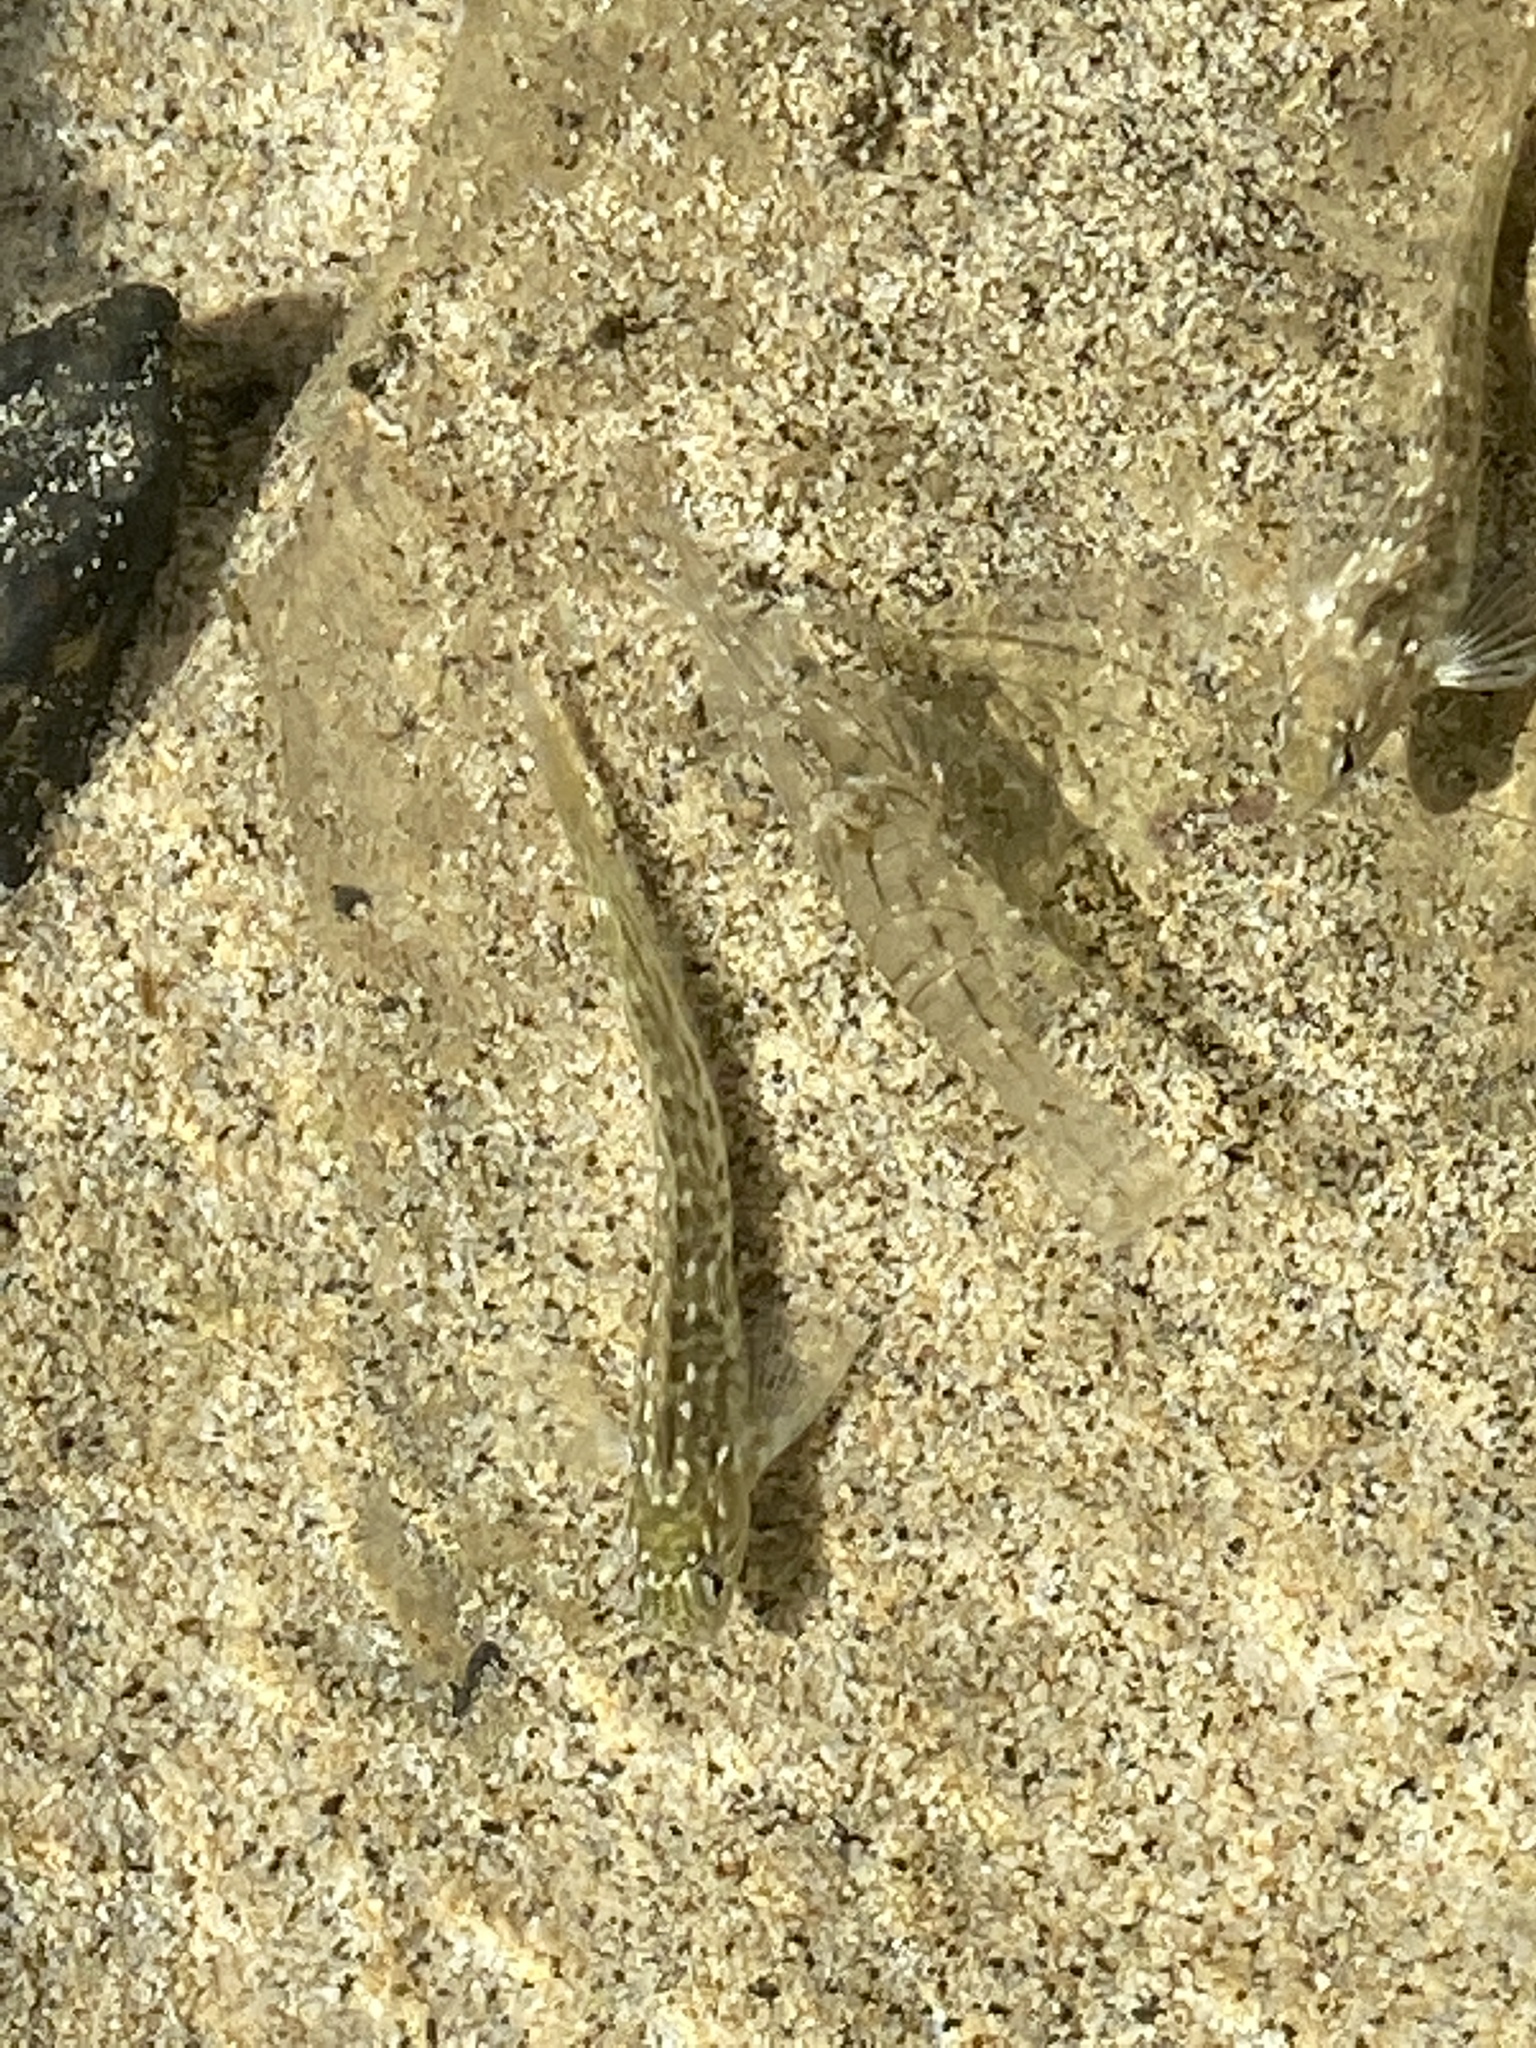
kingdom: Animalia
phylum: Chordata
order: Perciformes
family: Blenniidae
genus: Parablennius
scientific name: Parablennius parvicornis
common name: Rock-pool blenny
